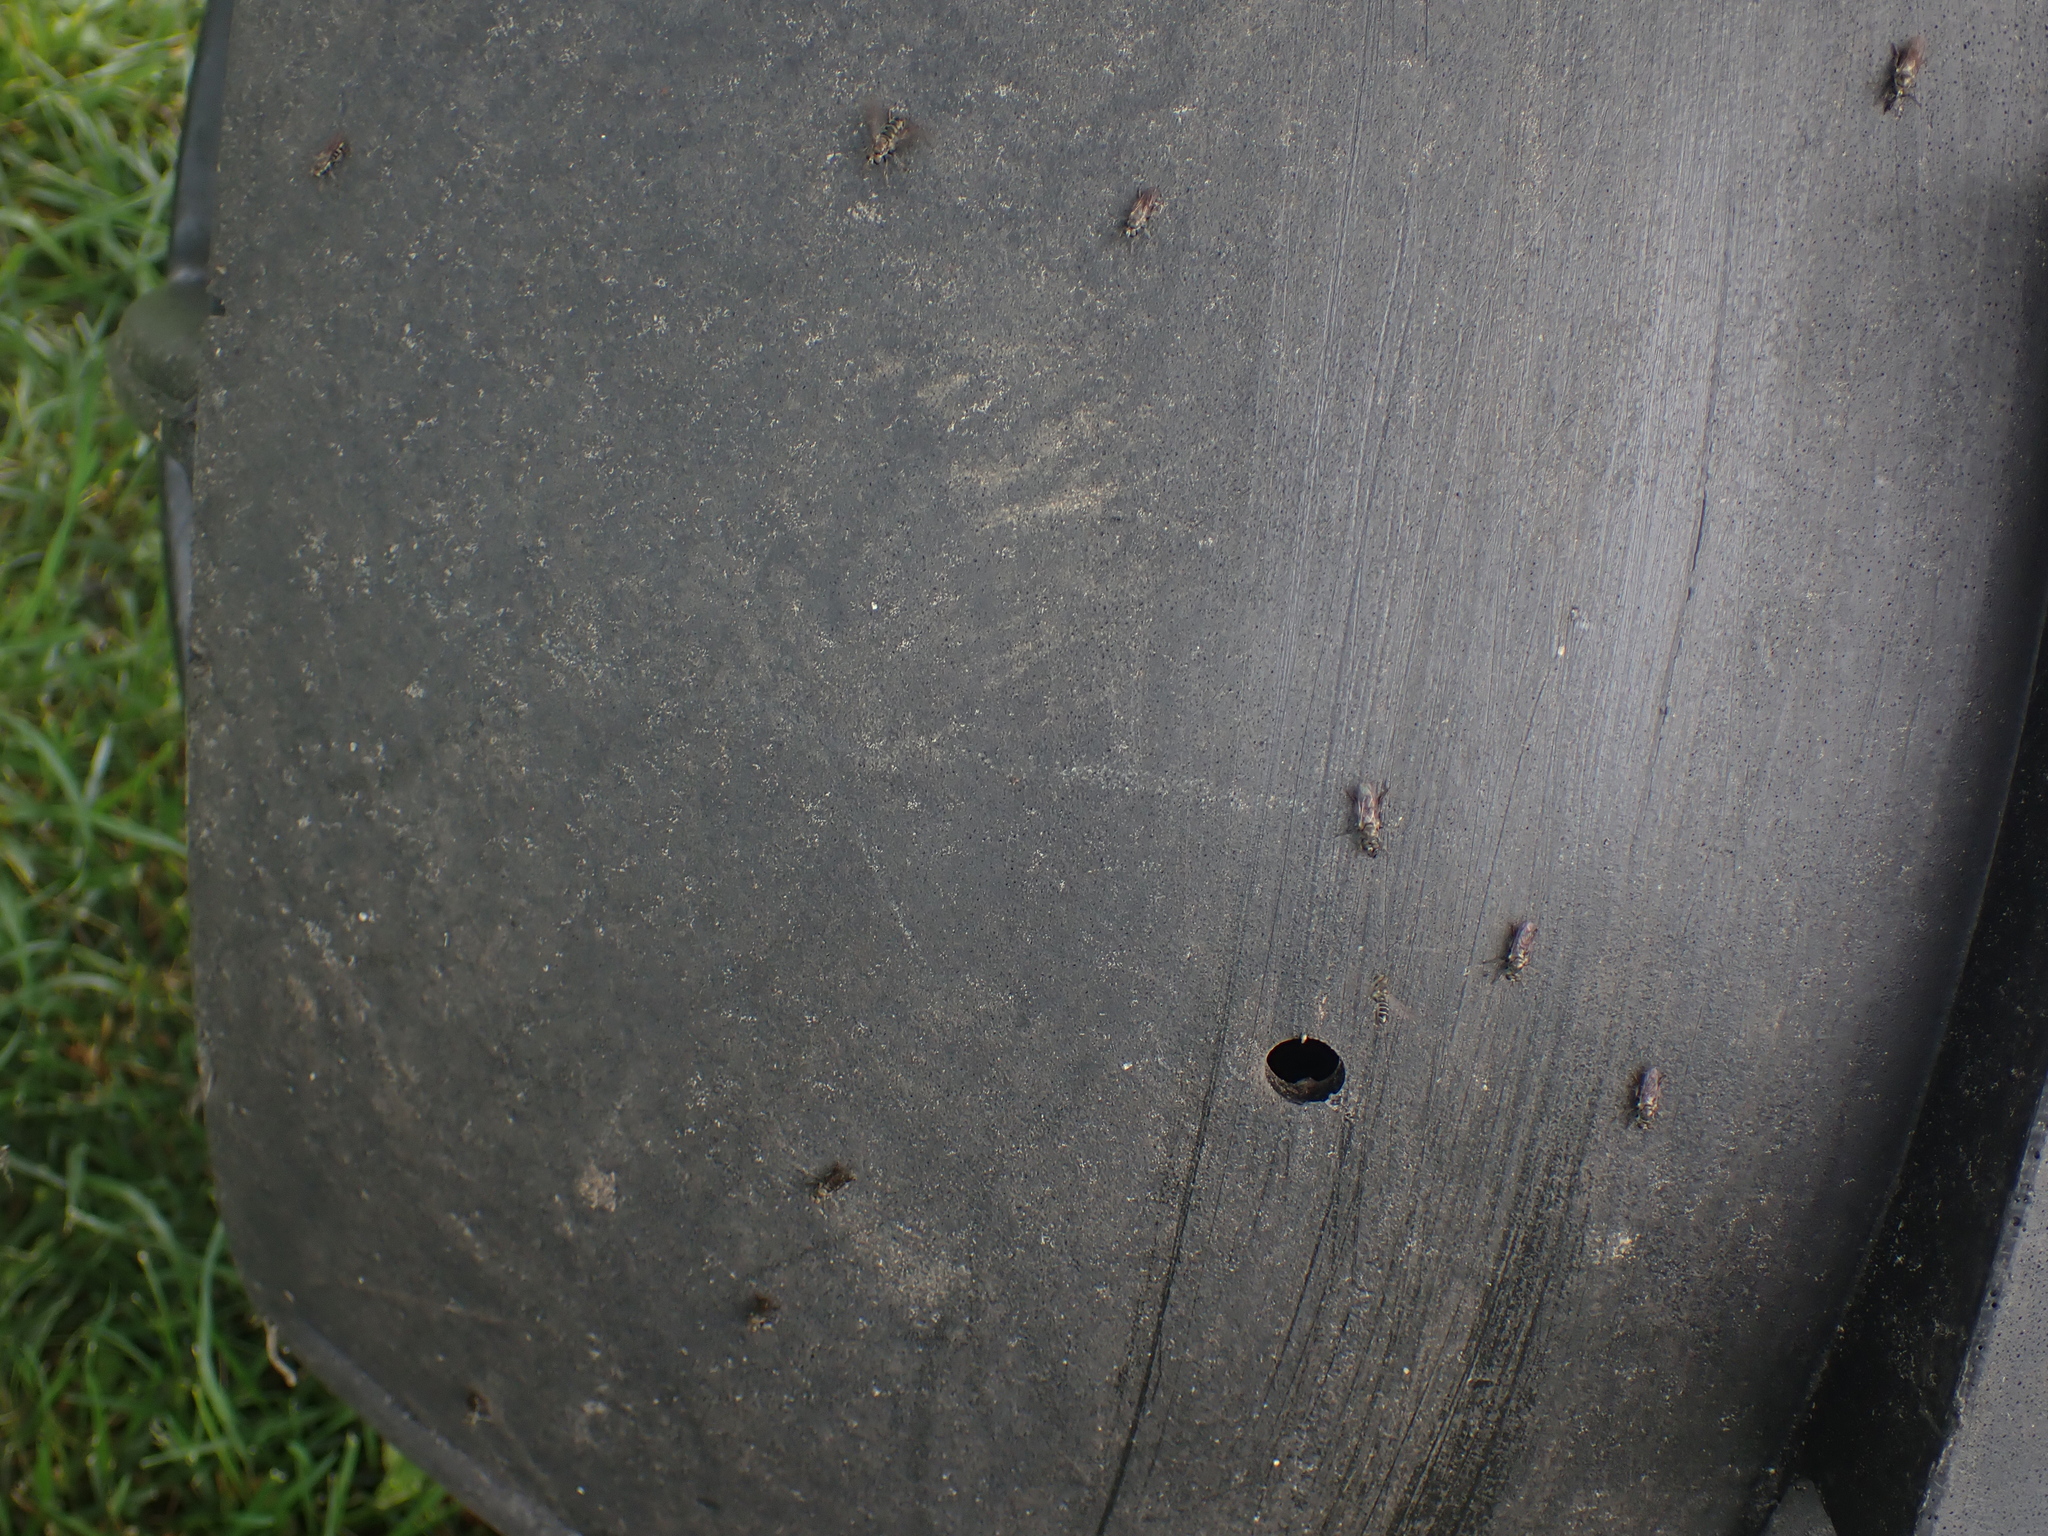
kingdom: Animalia
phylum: Arthropoda
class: Insecta
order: Diptera
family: Asilidae
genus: Atomosia
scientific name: Atomosia puella
